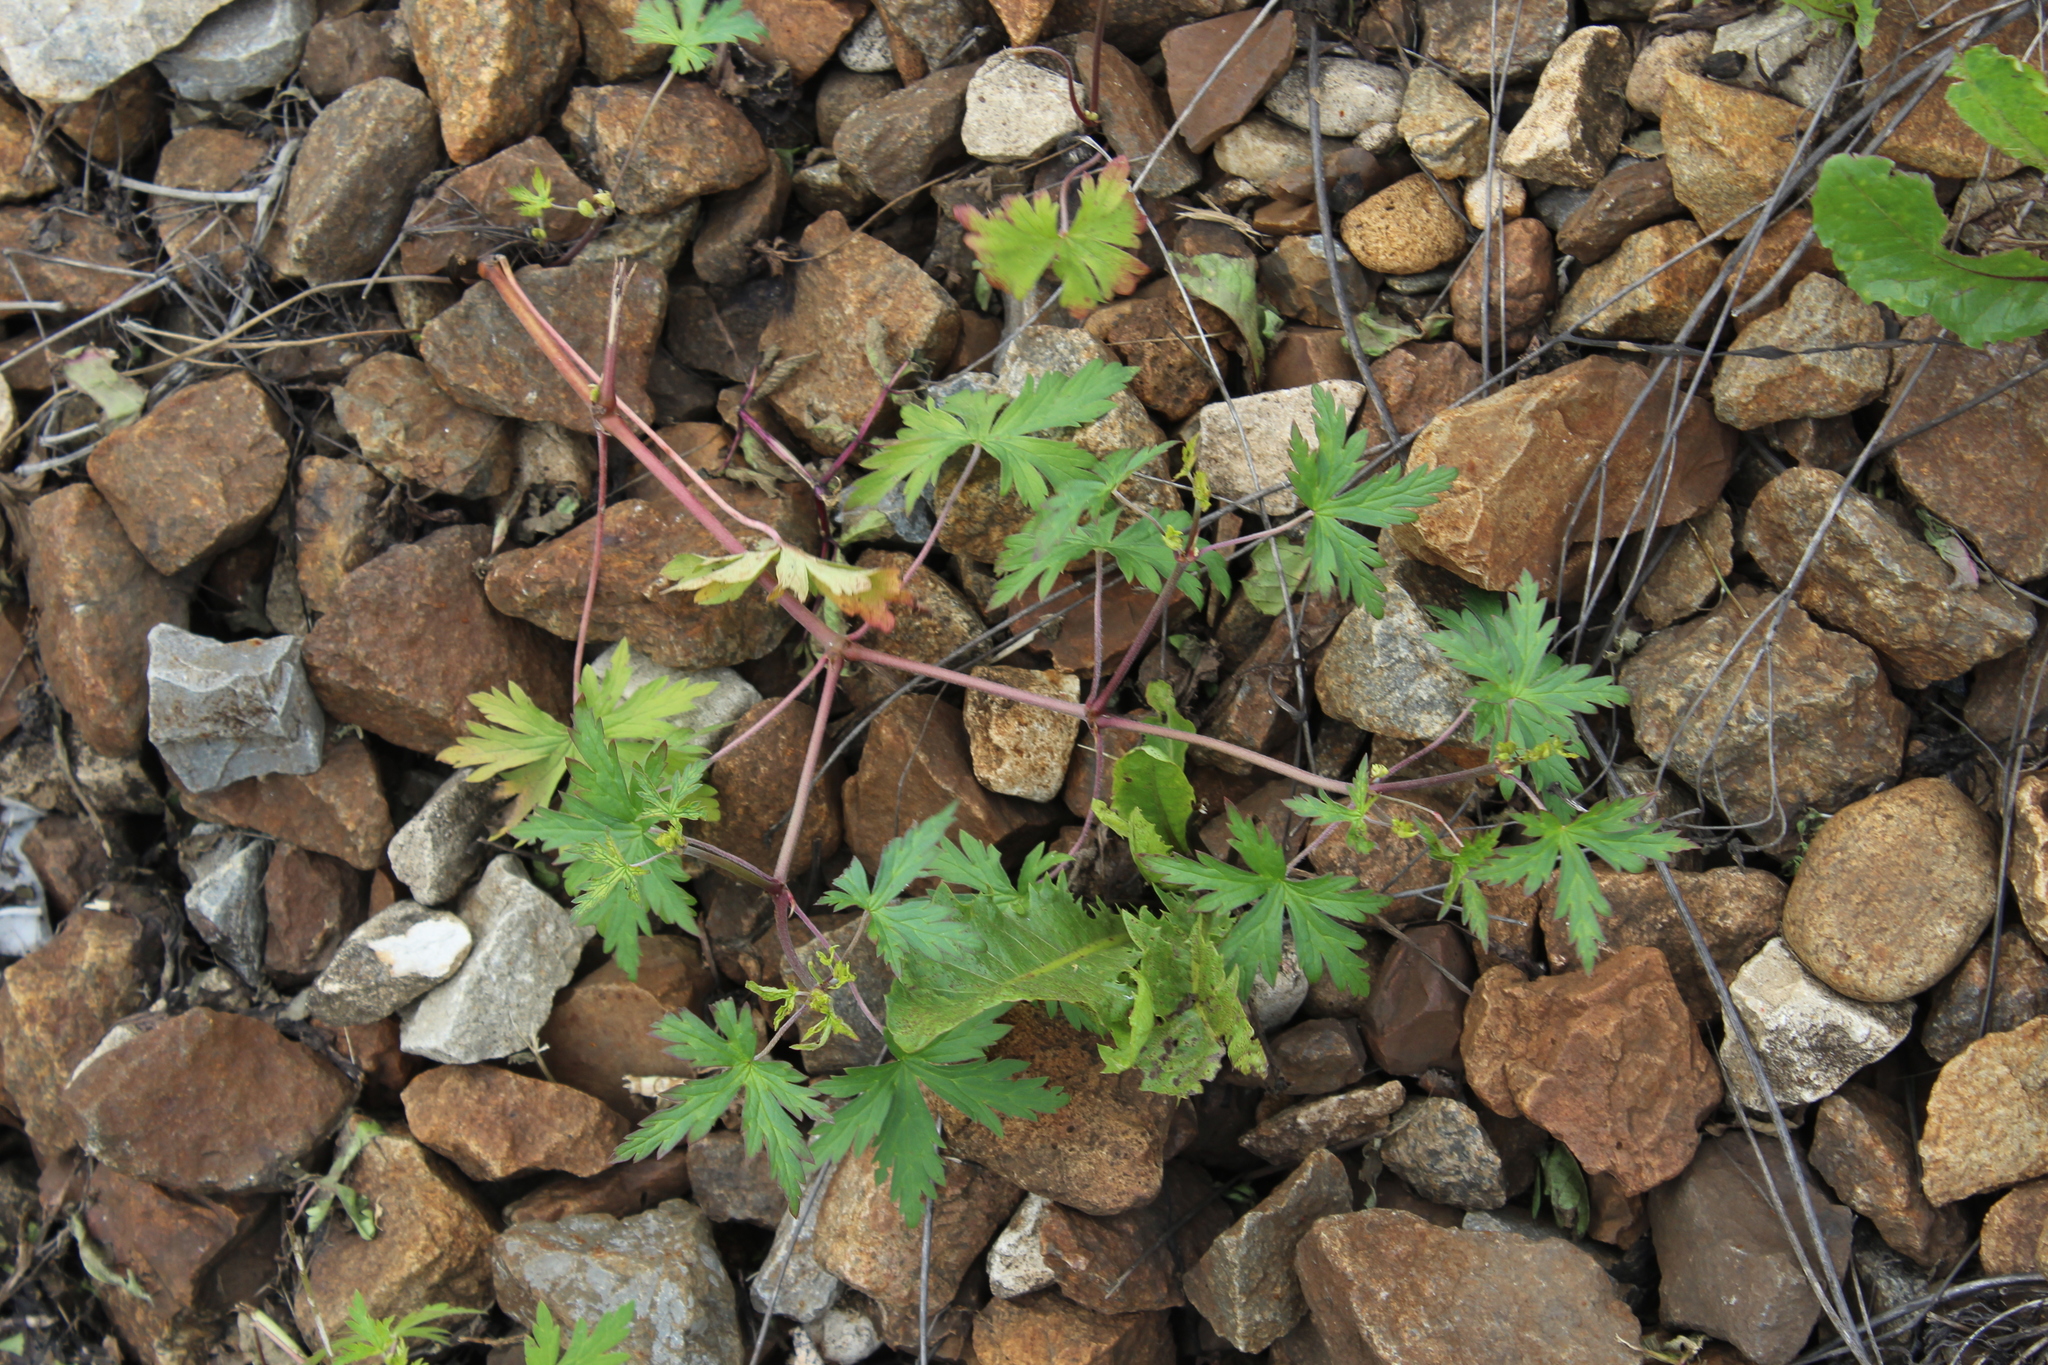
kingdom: Plantae
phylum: Tracheophyta
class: Magnoliopsida
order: Geraniales
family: Geraniaceae
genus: Geranium
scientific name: Geranium sibiricum
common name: Siberian crane's-bill
